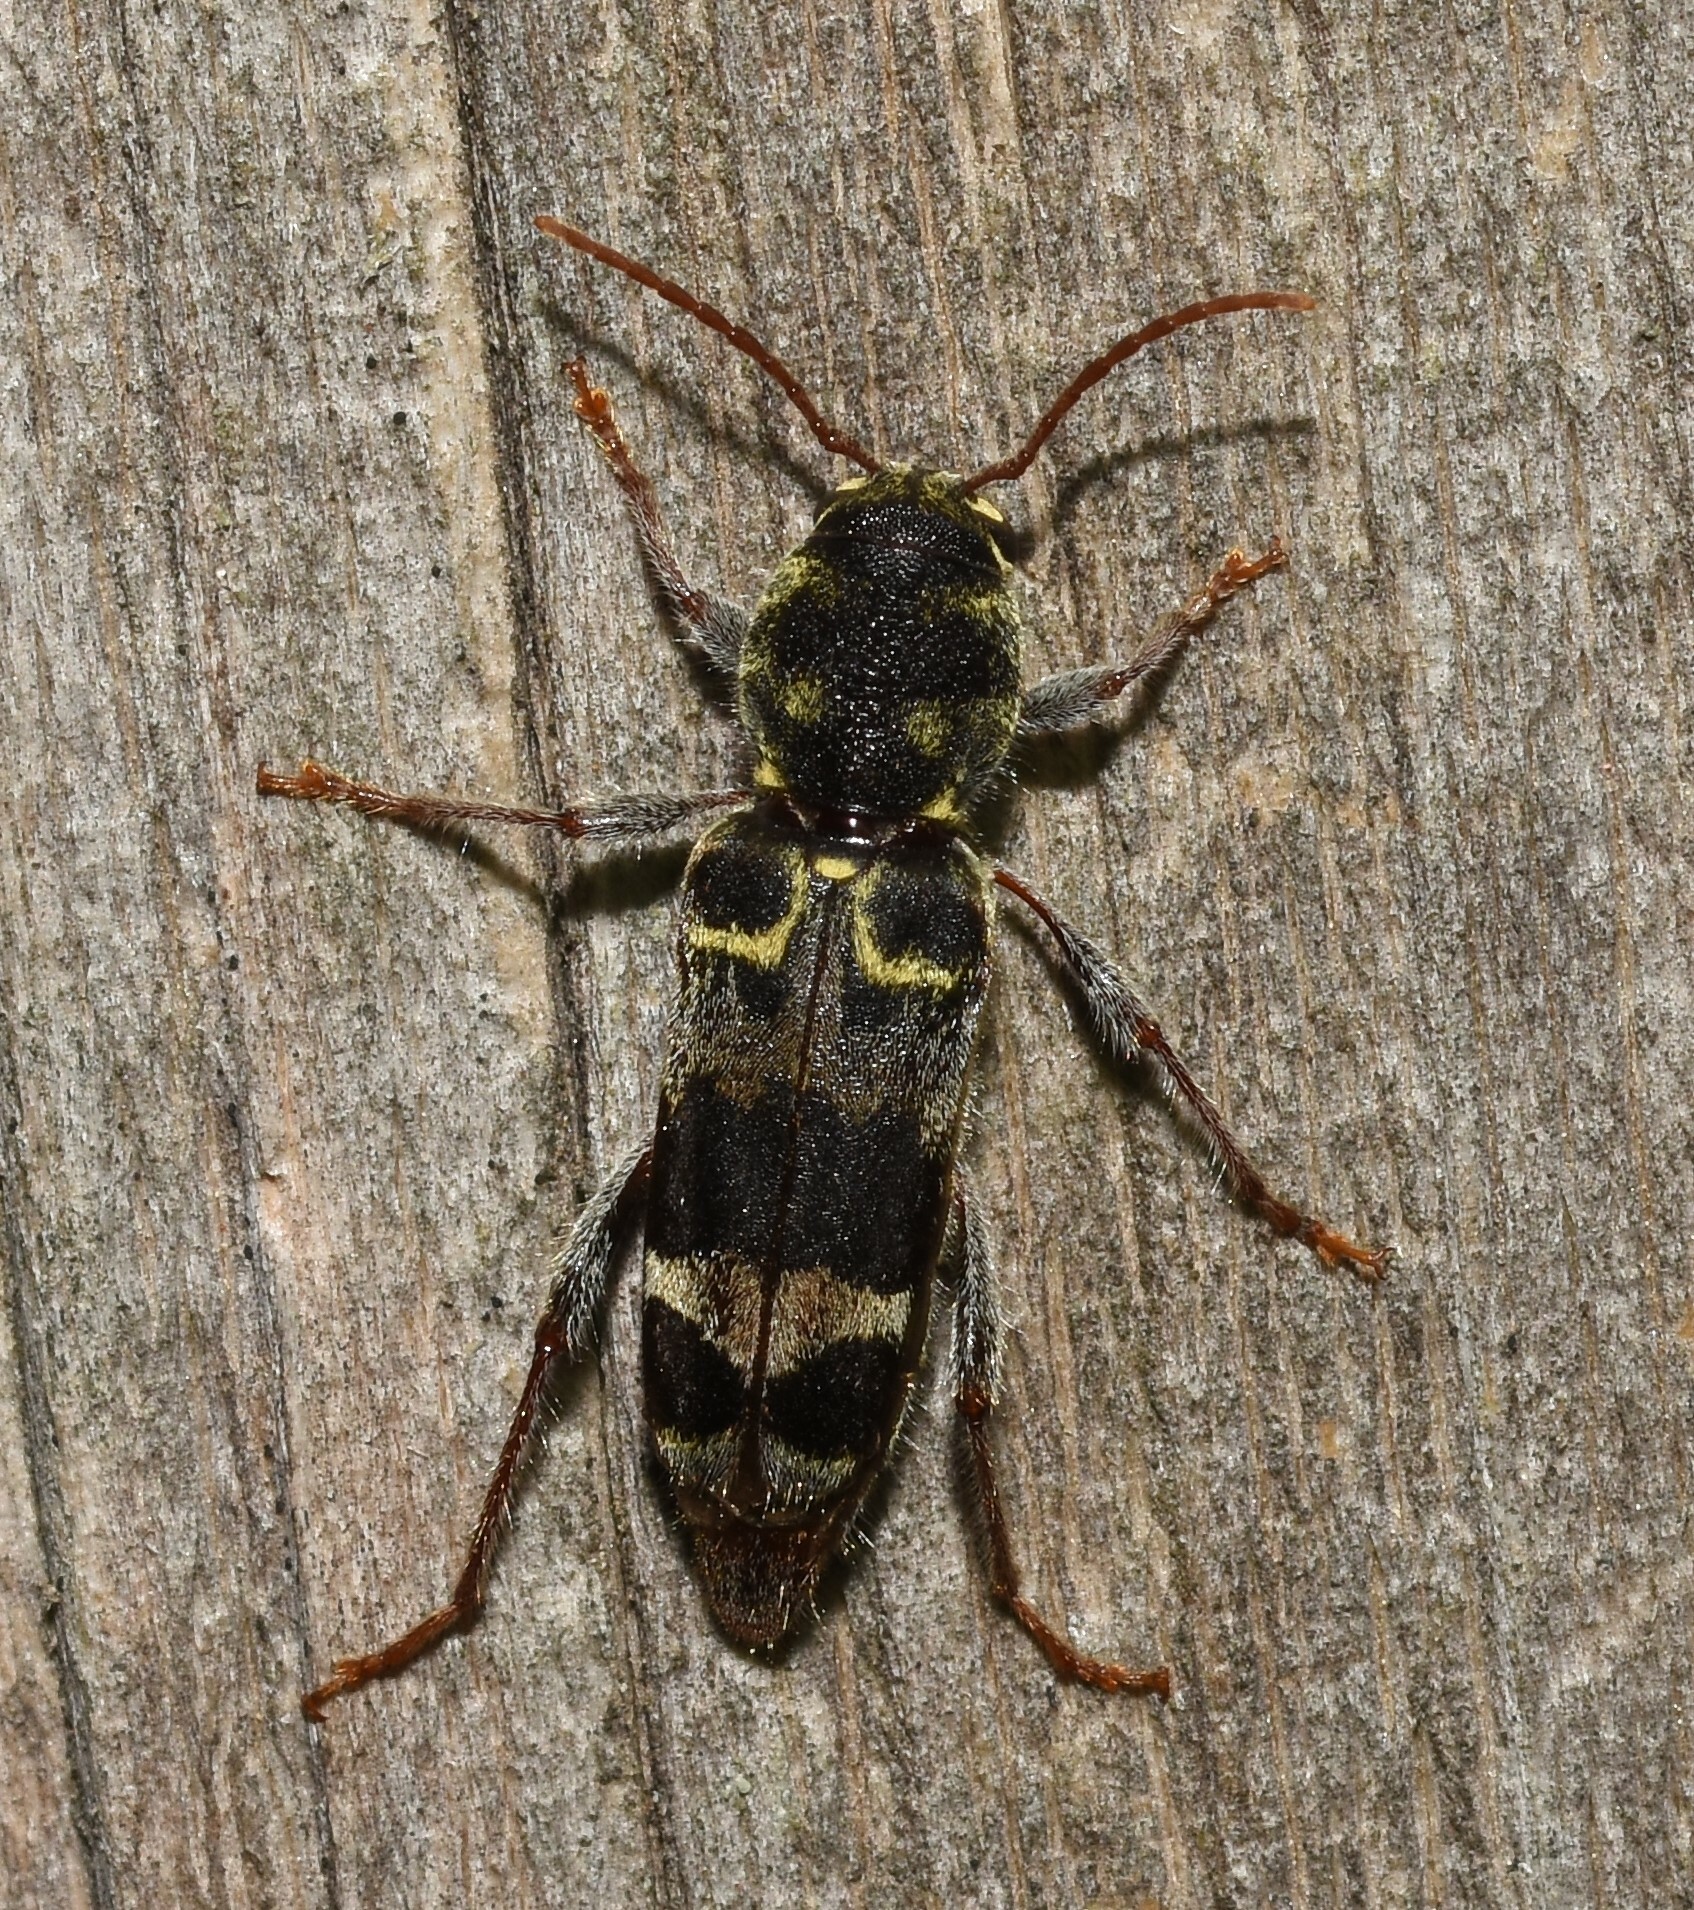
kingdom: Animalia
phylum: Arthropoda
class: Insecta
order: Coleoptera
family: Cerambycidae
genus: Xylotrechus
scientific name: Xylotrechus colonus
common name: Long-horned beetle
